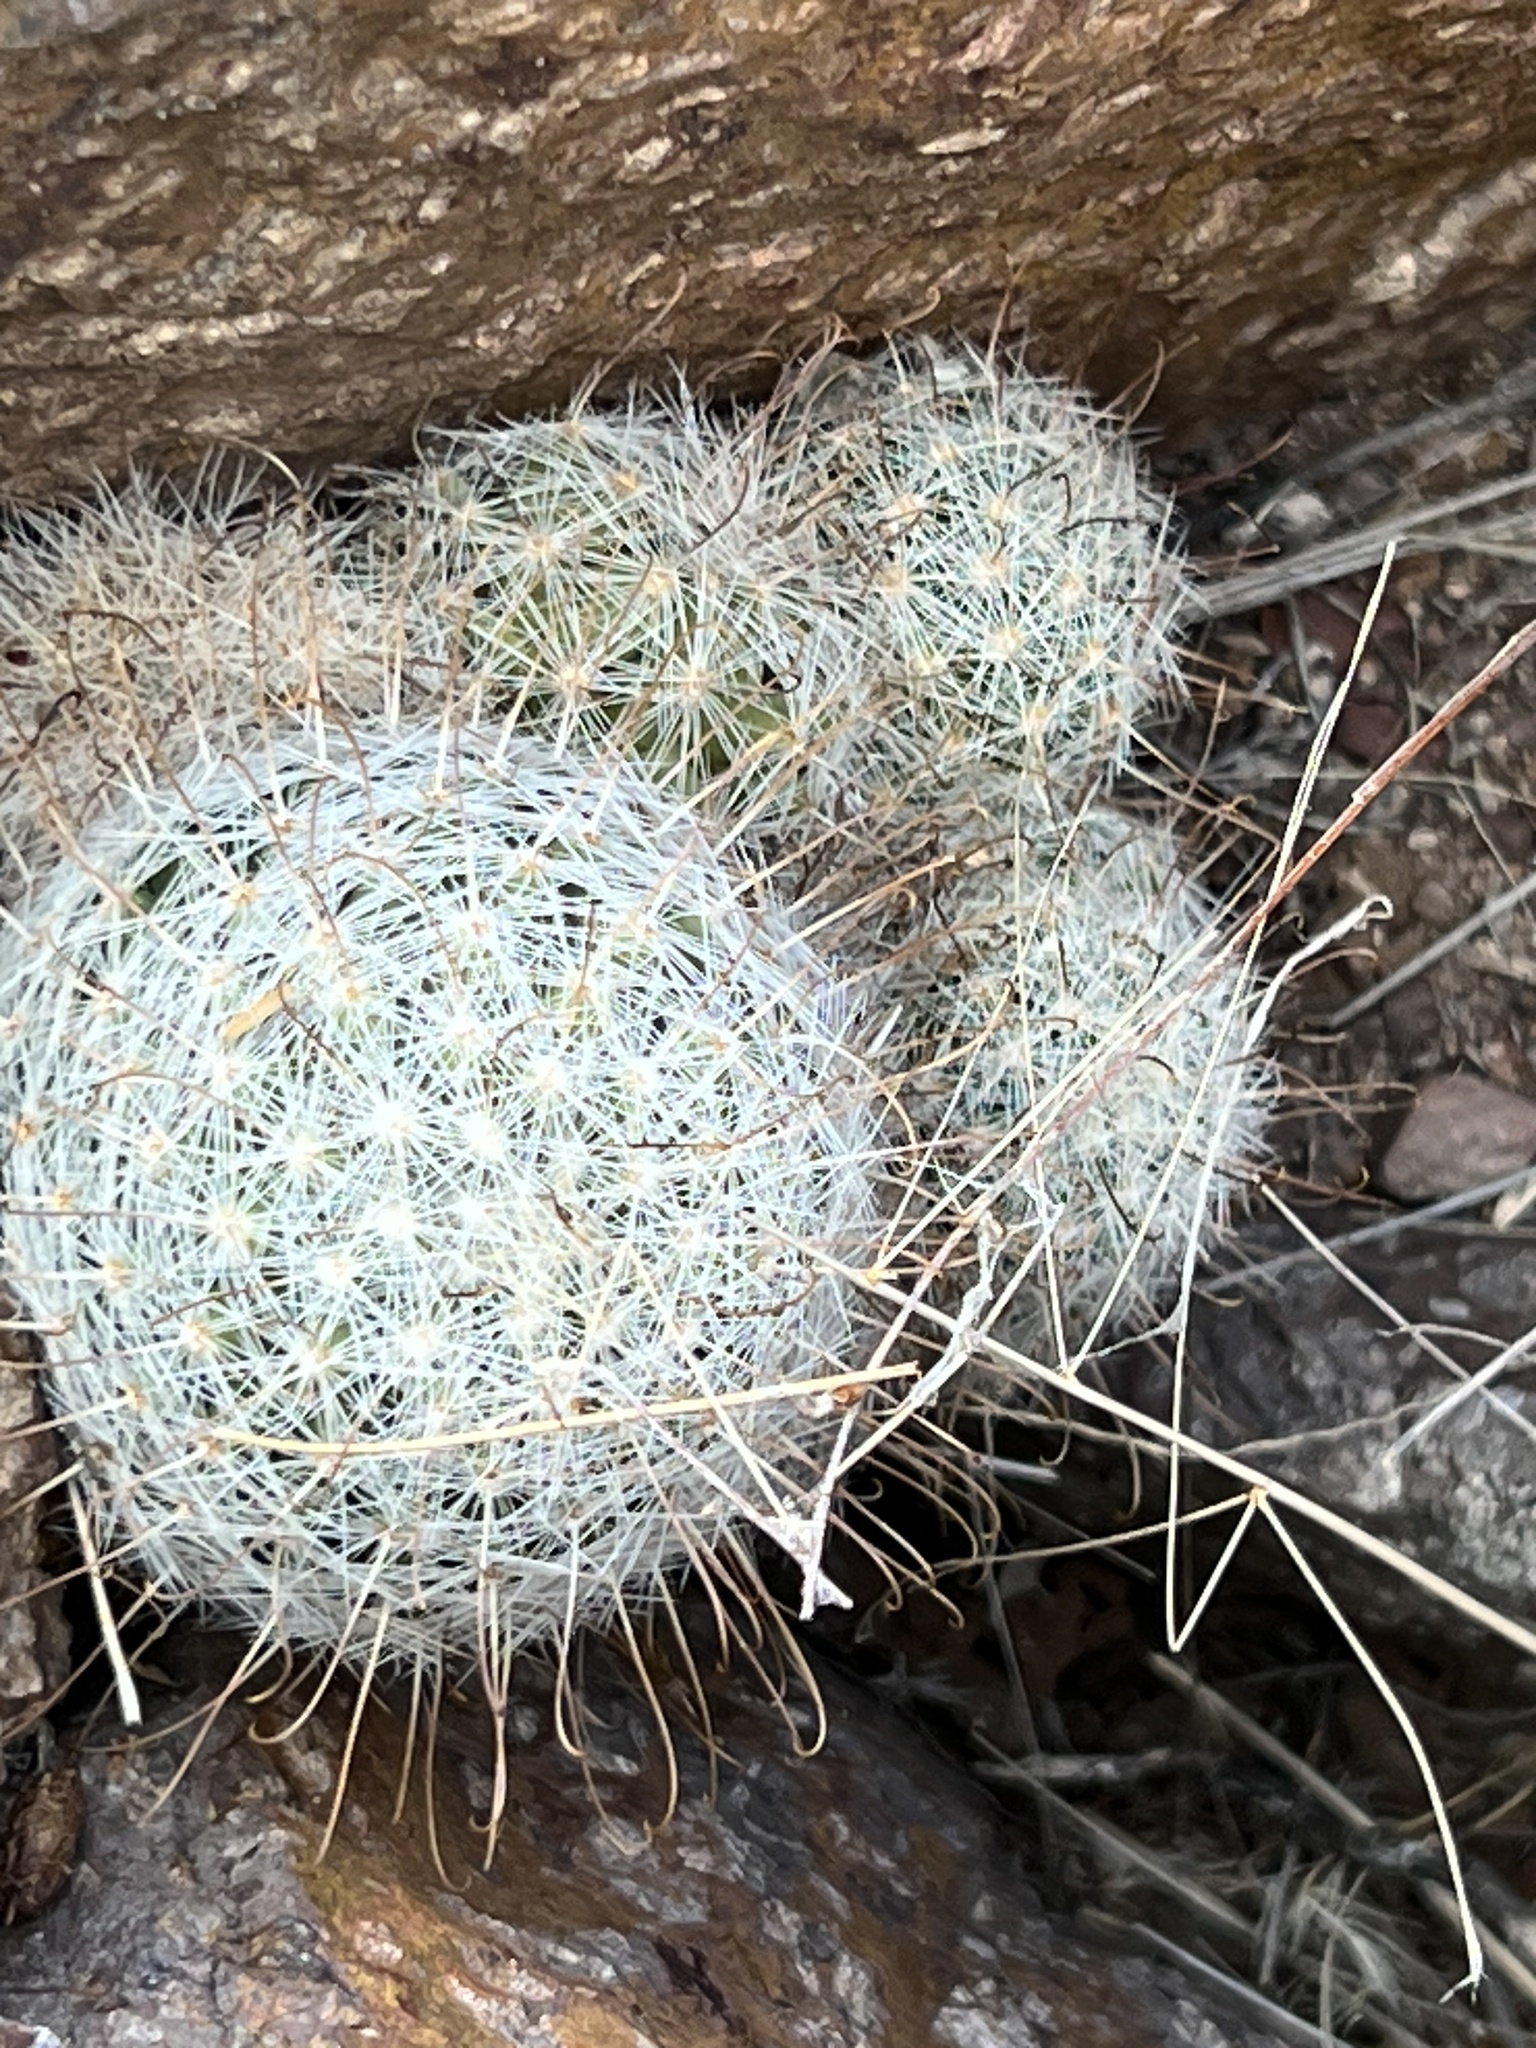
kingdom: Plantae
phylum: Tracheophyta
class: Magnoliopsida
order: Caryophyllales
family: Cactaceae
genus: Cochemiea
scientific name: Cochemiea grahamii
